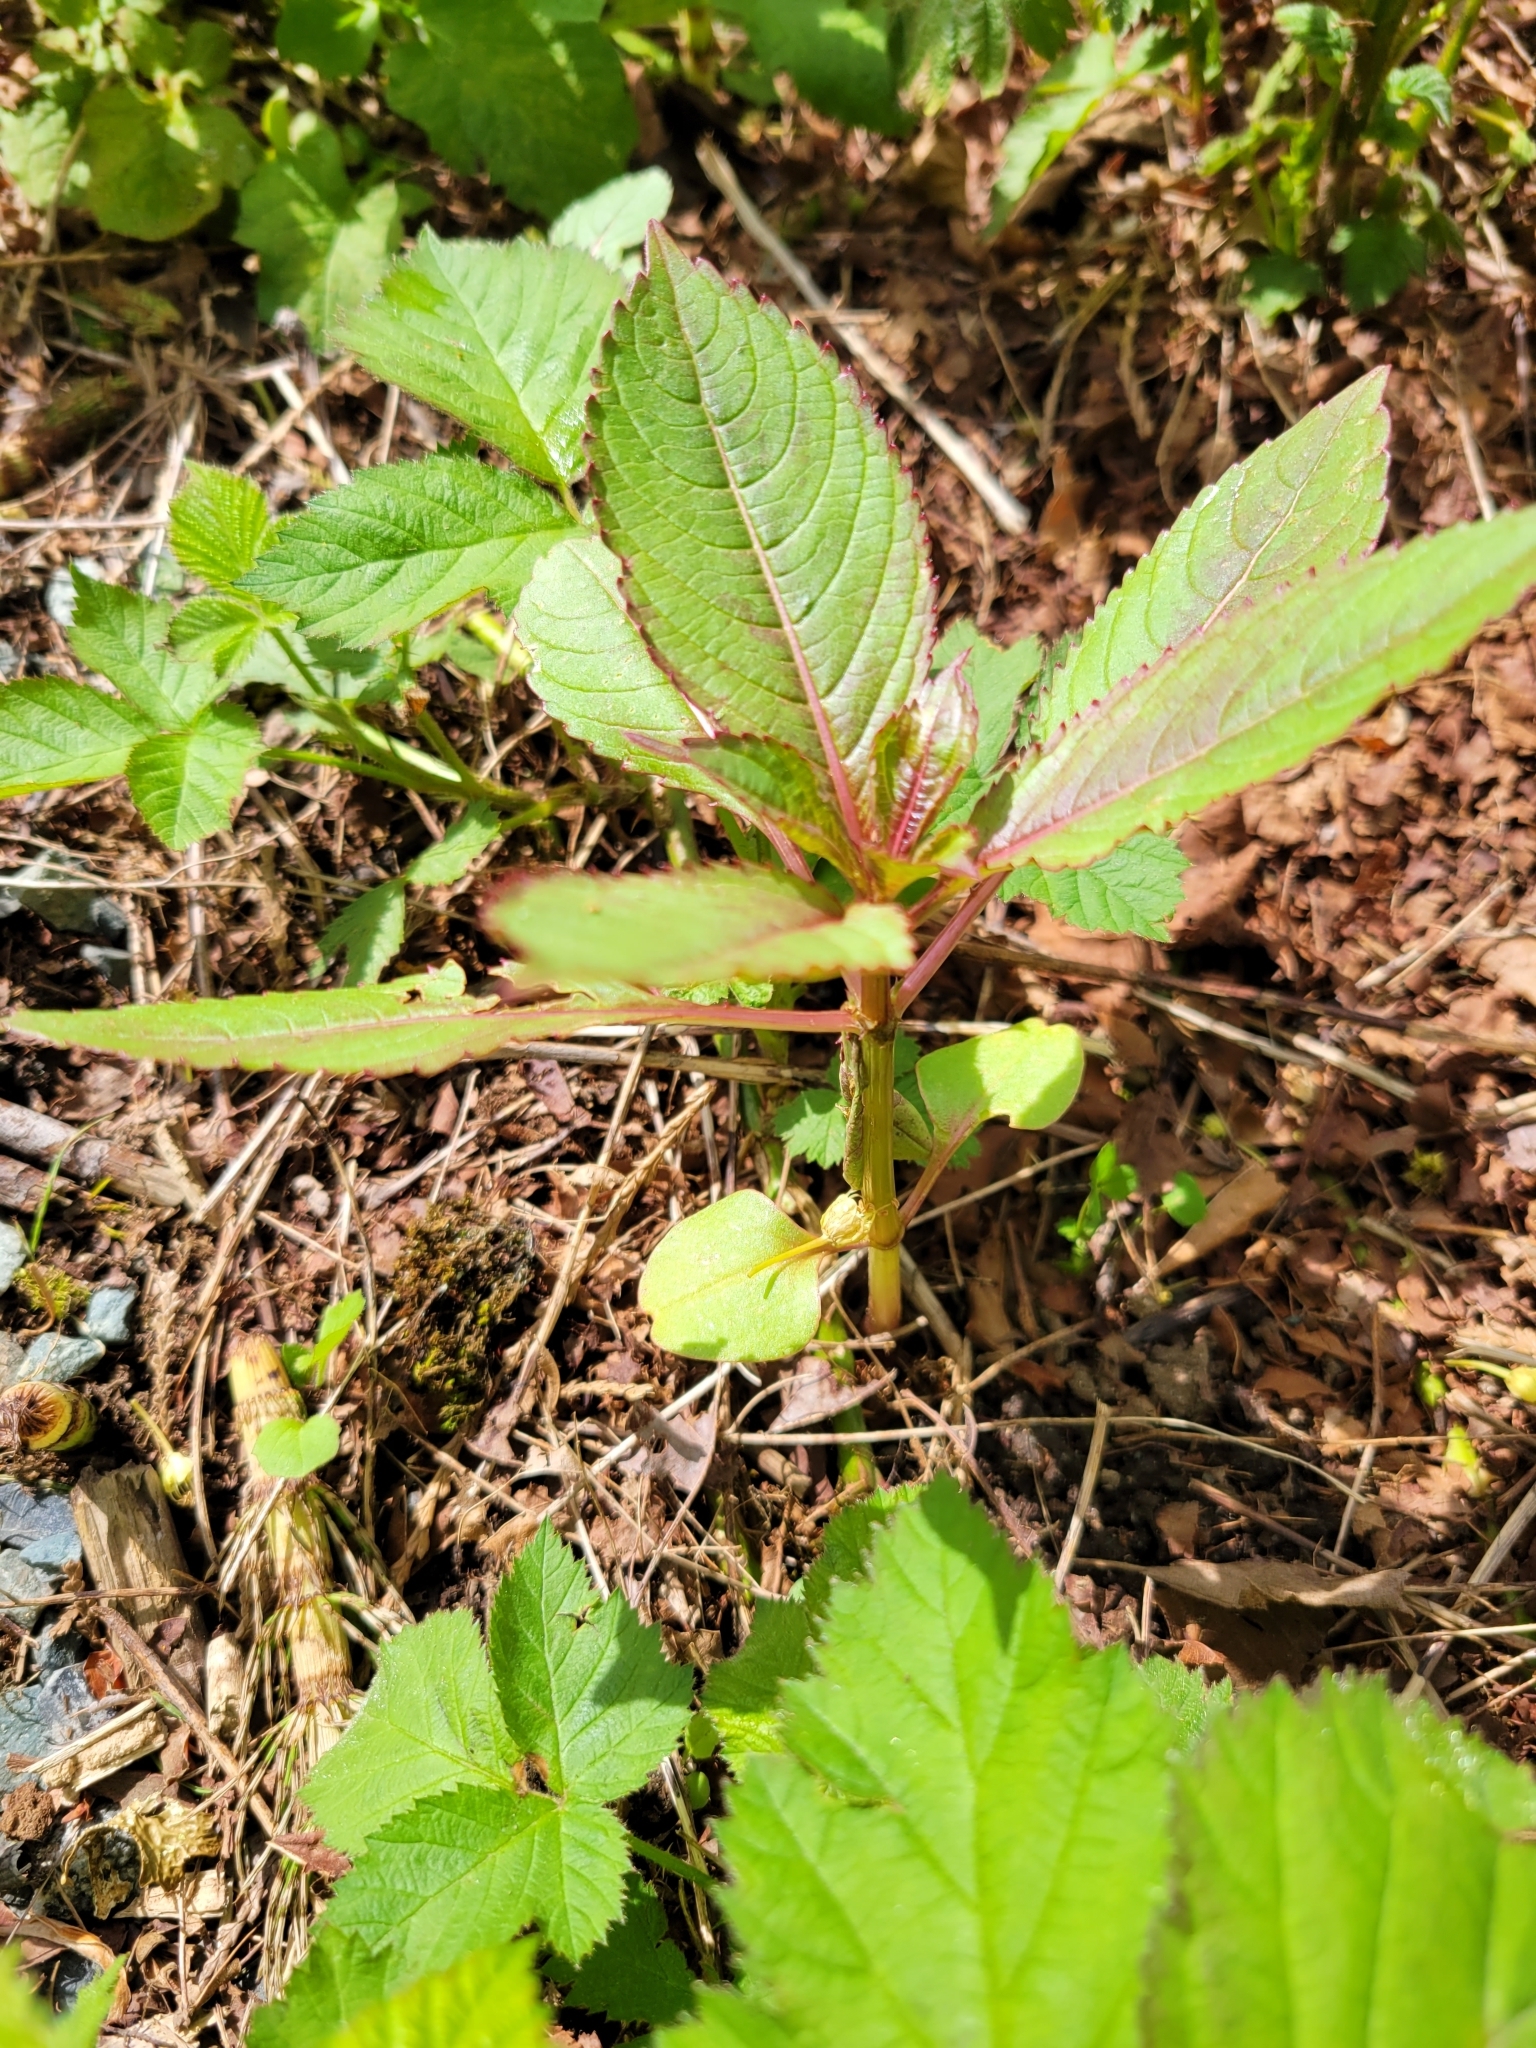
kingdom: Plantae
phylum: Tracheophyta
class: Magnoliopsida
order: Ericales
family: Balsaminaceae
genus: Impatiens
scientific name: Impatiens glandulifera
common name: Himalayan balsam
